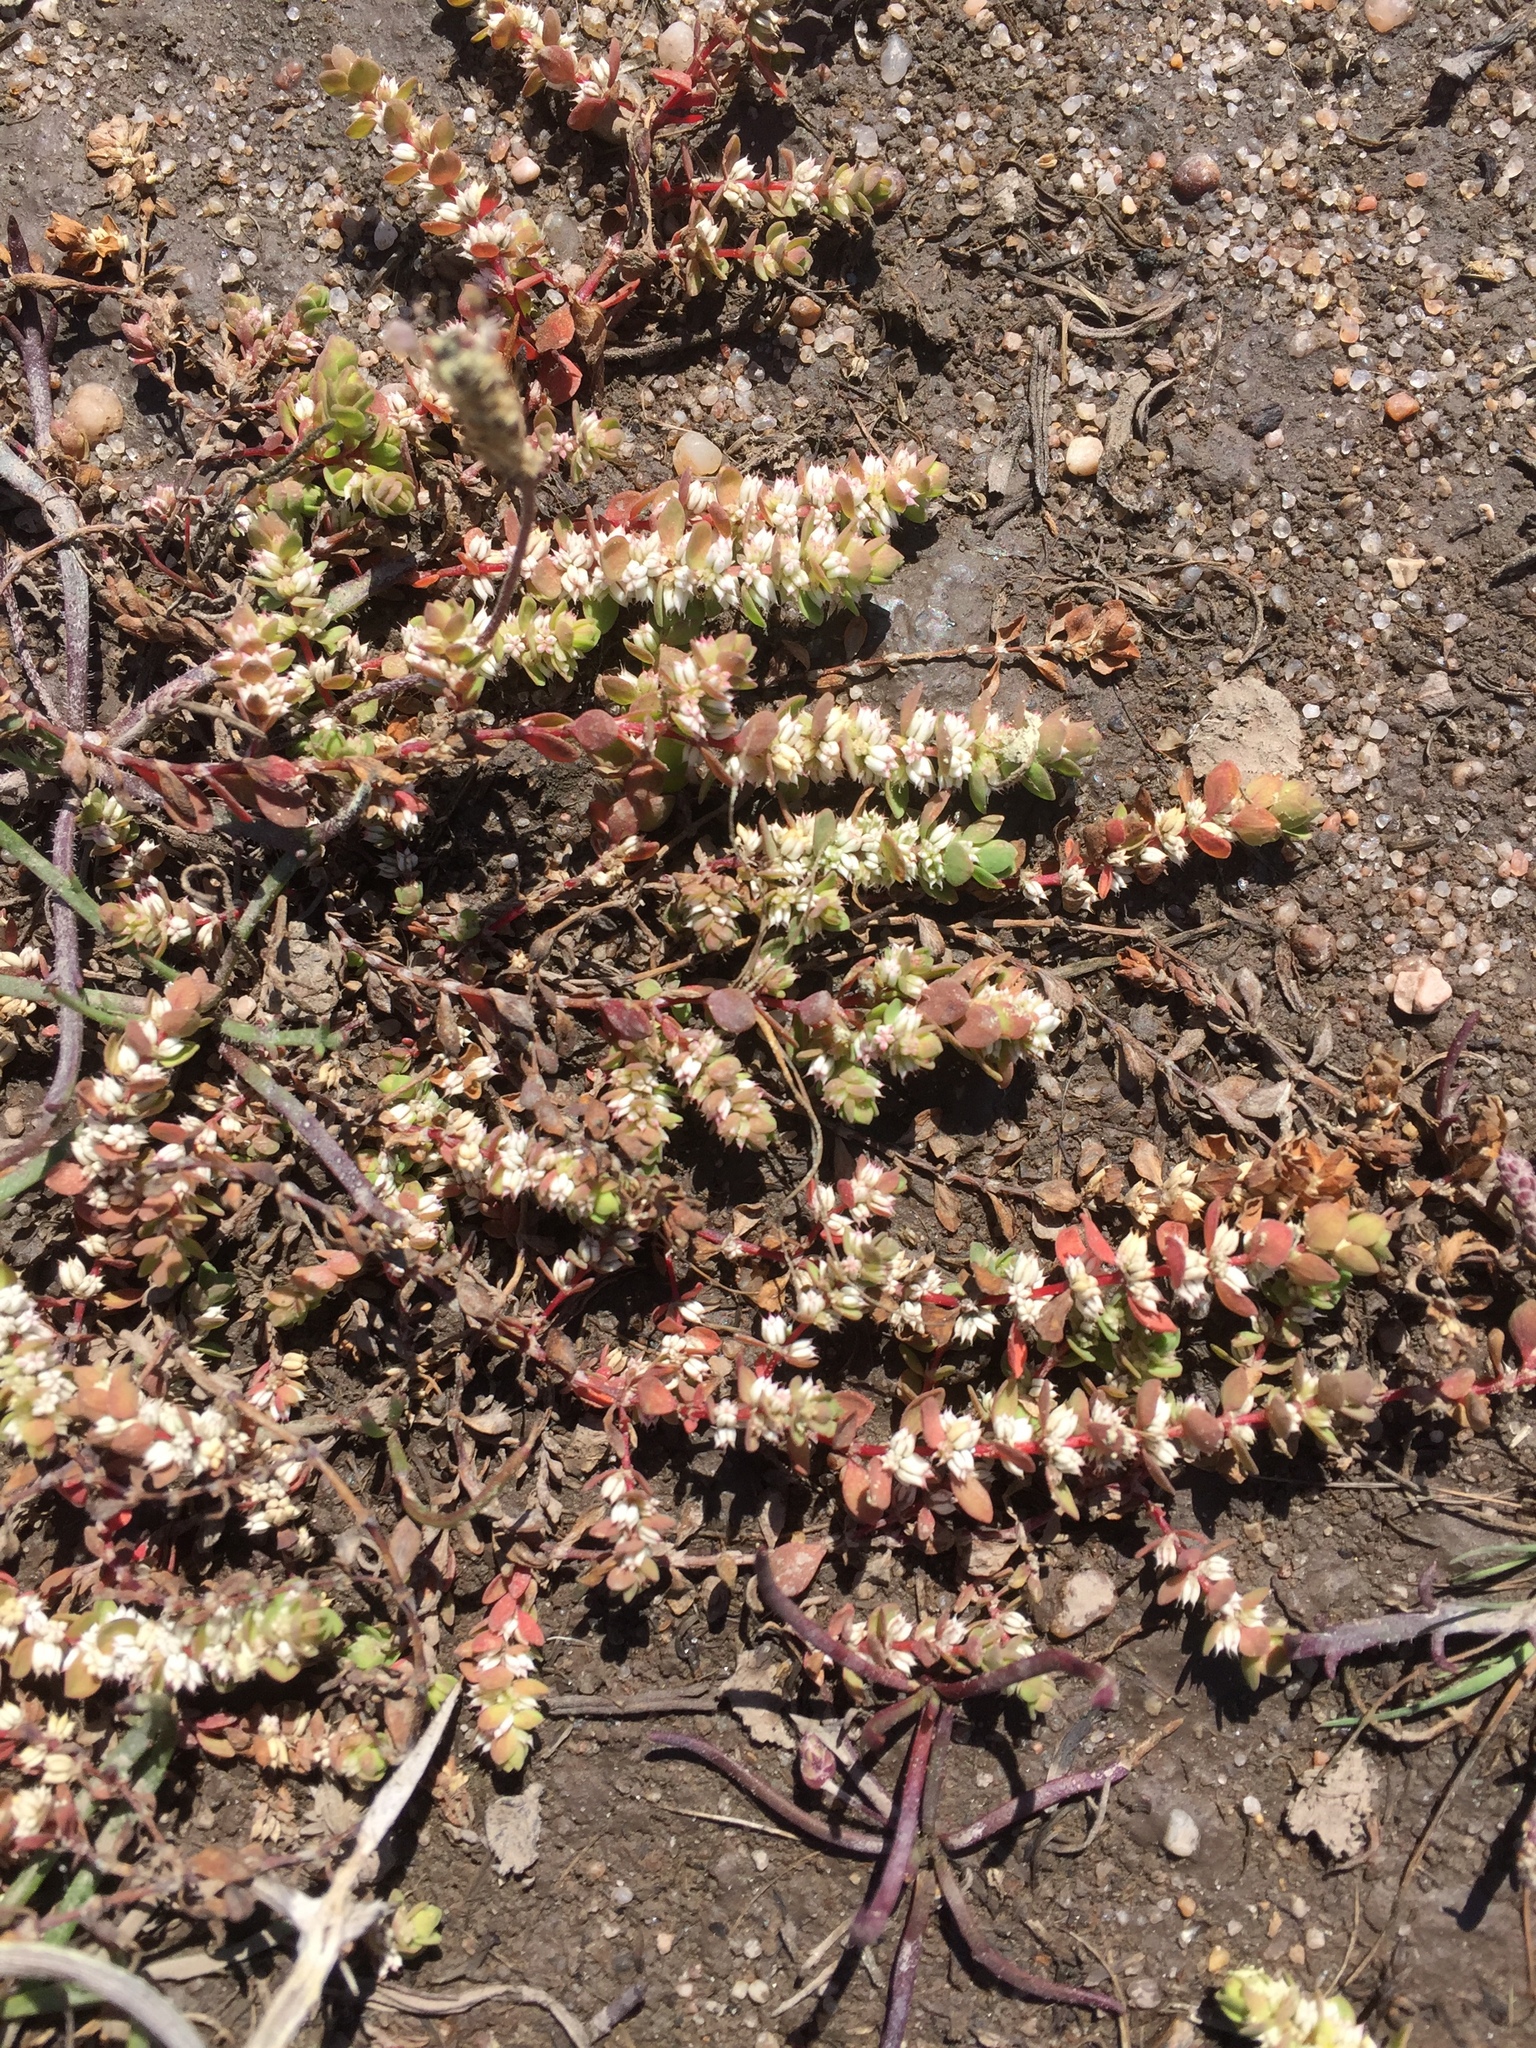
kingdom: Plantae
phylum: Tracheophyta
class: Magnoliopsida
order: Caryophyllales
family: Caryophyllaceae
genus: Illecebrum
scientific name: Illecebrum verticillatum
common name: Coral necklace
